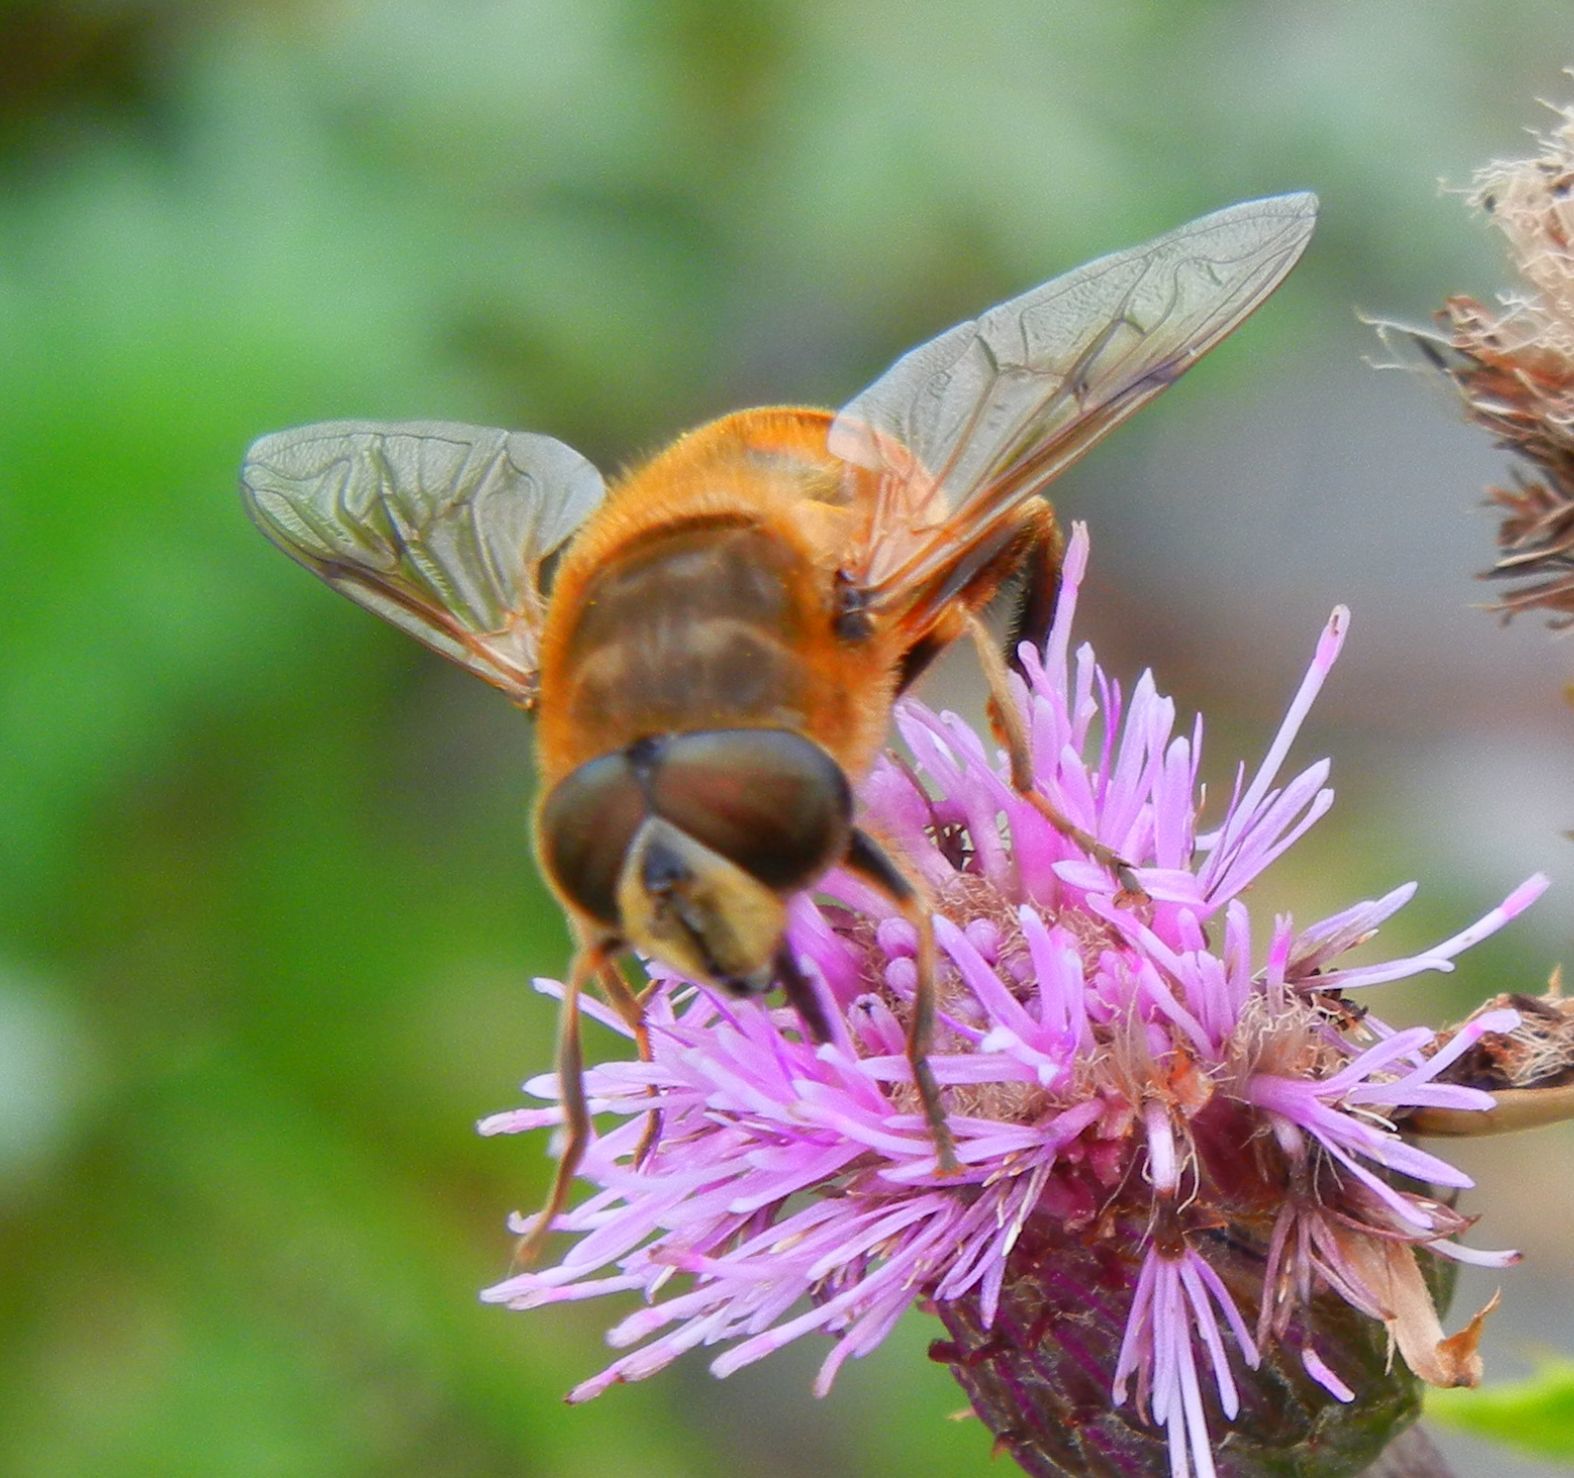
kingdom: Animalia
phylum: Arthropoda
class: Insecta
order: Diptera
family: Syrphidae
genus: Eristalis
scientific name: Eristalis tenax
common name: Drone fly
